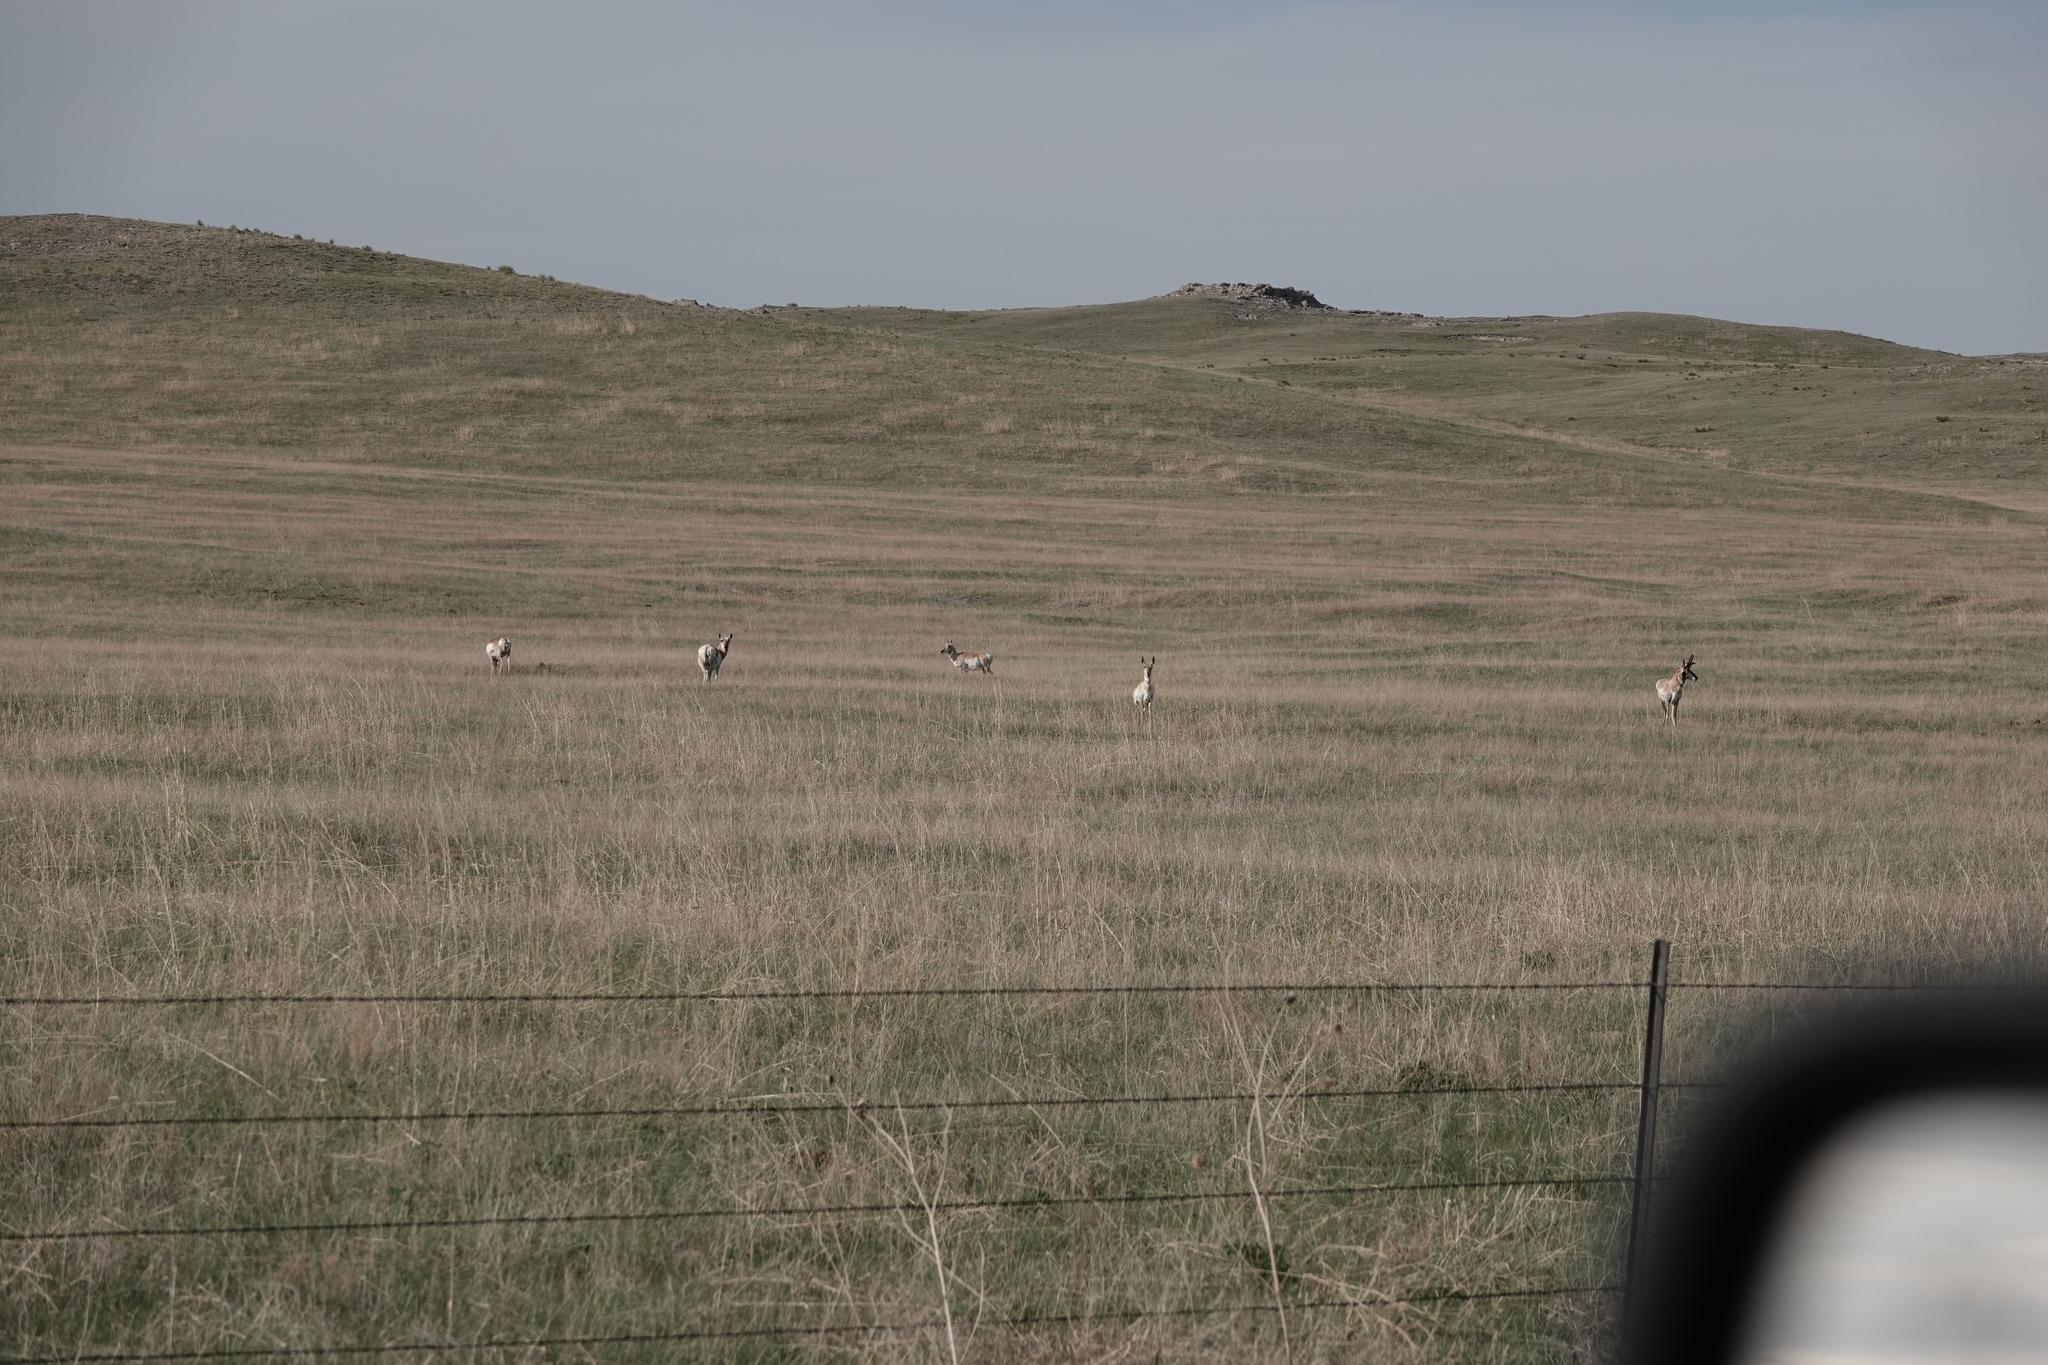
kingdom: Animalia
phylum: Chordata
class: Mammalia
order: Artiodactyla
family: Antilocapridae
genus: Antilocapra
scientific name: Antilocapra americana
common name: Pronghorn
